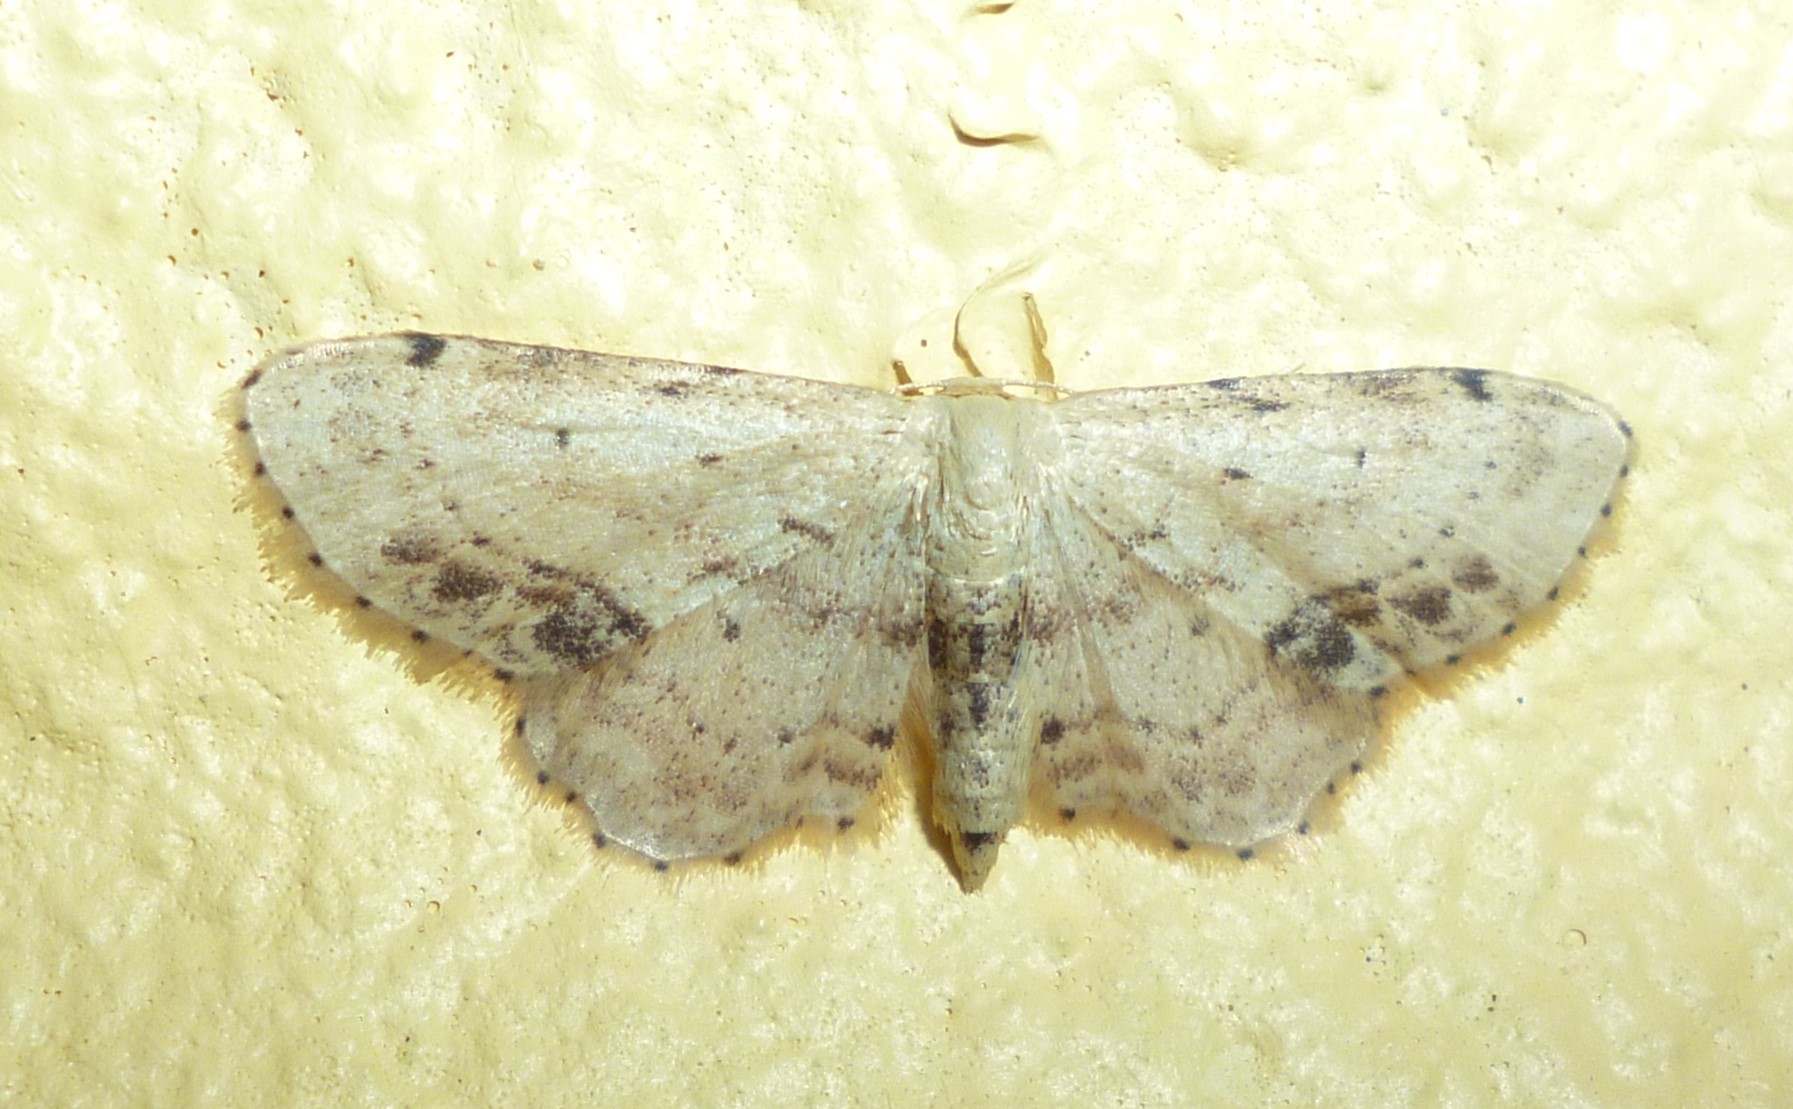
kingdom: Animalia
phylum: Arthropoda
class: Insecta
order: Lepidoptera
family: Geometridae
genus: Idaea
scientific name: Idaea dimidiata
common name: Single-dotted wave
